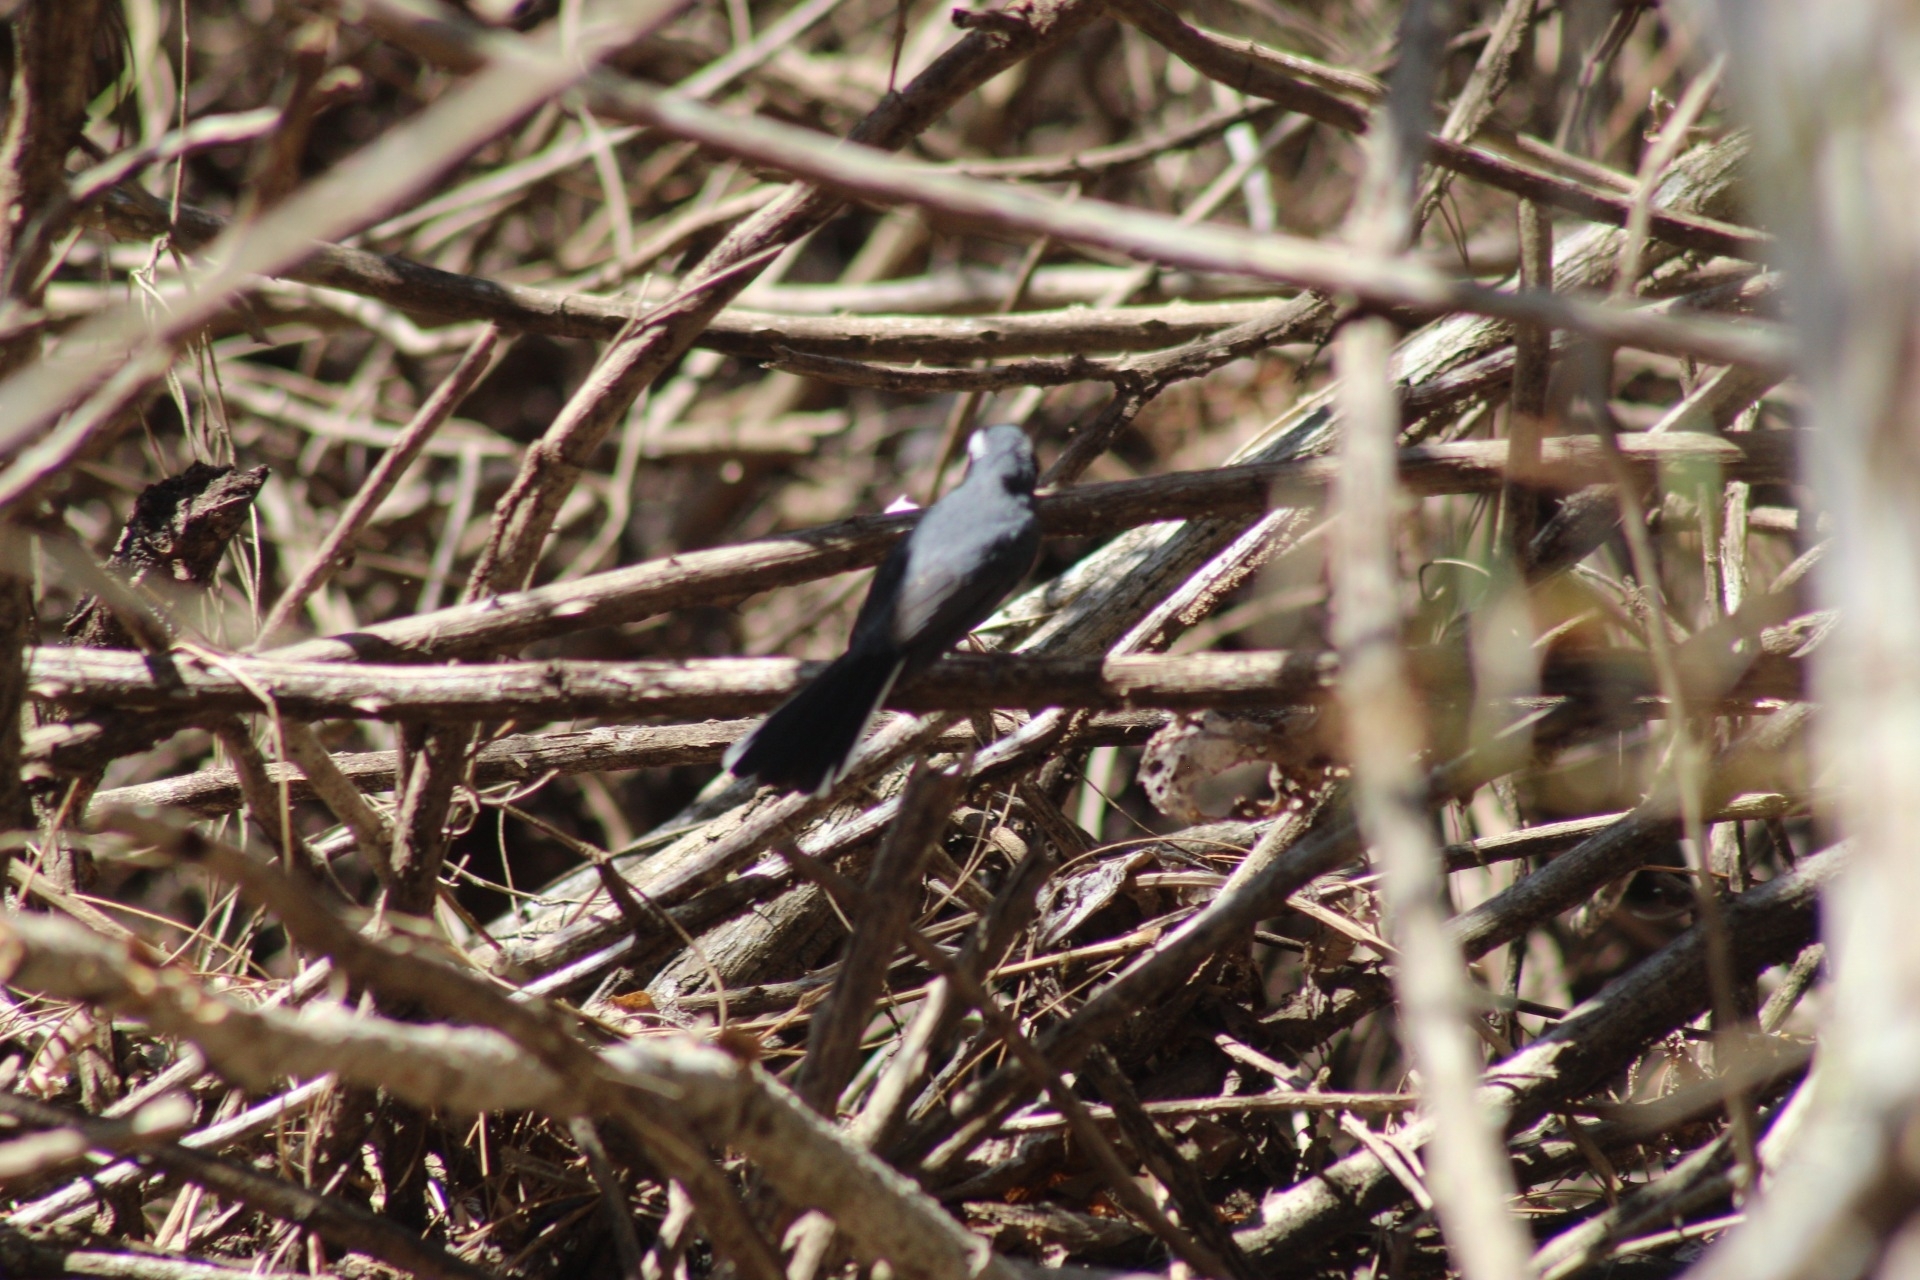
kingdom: Animalia
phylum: Chordata
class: Aves
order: Passeriformes
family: Cardinalidae
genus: Granatellus
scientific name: Granatellus venustus
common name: Red-breasted chat
